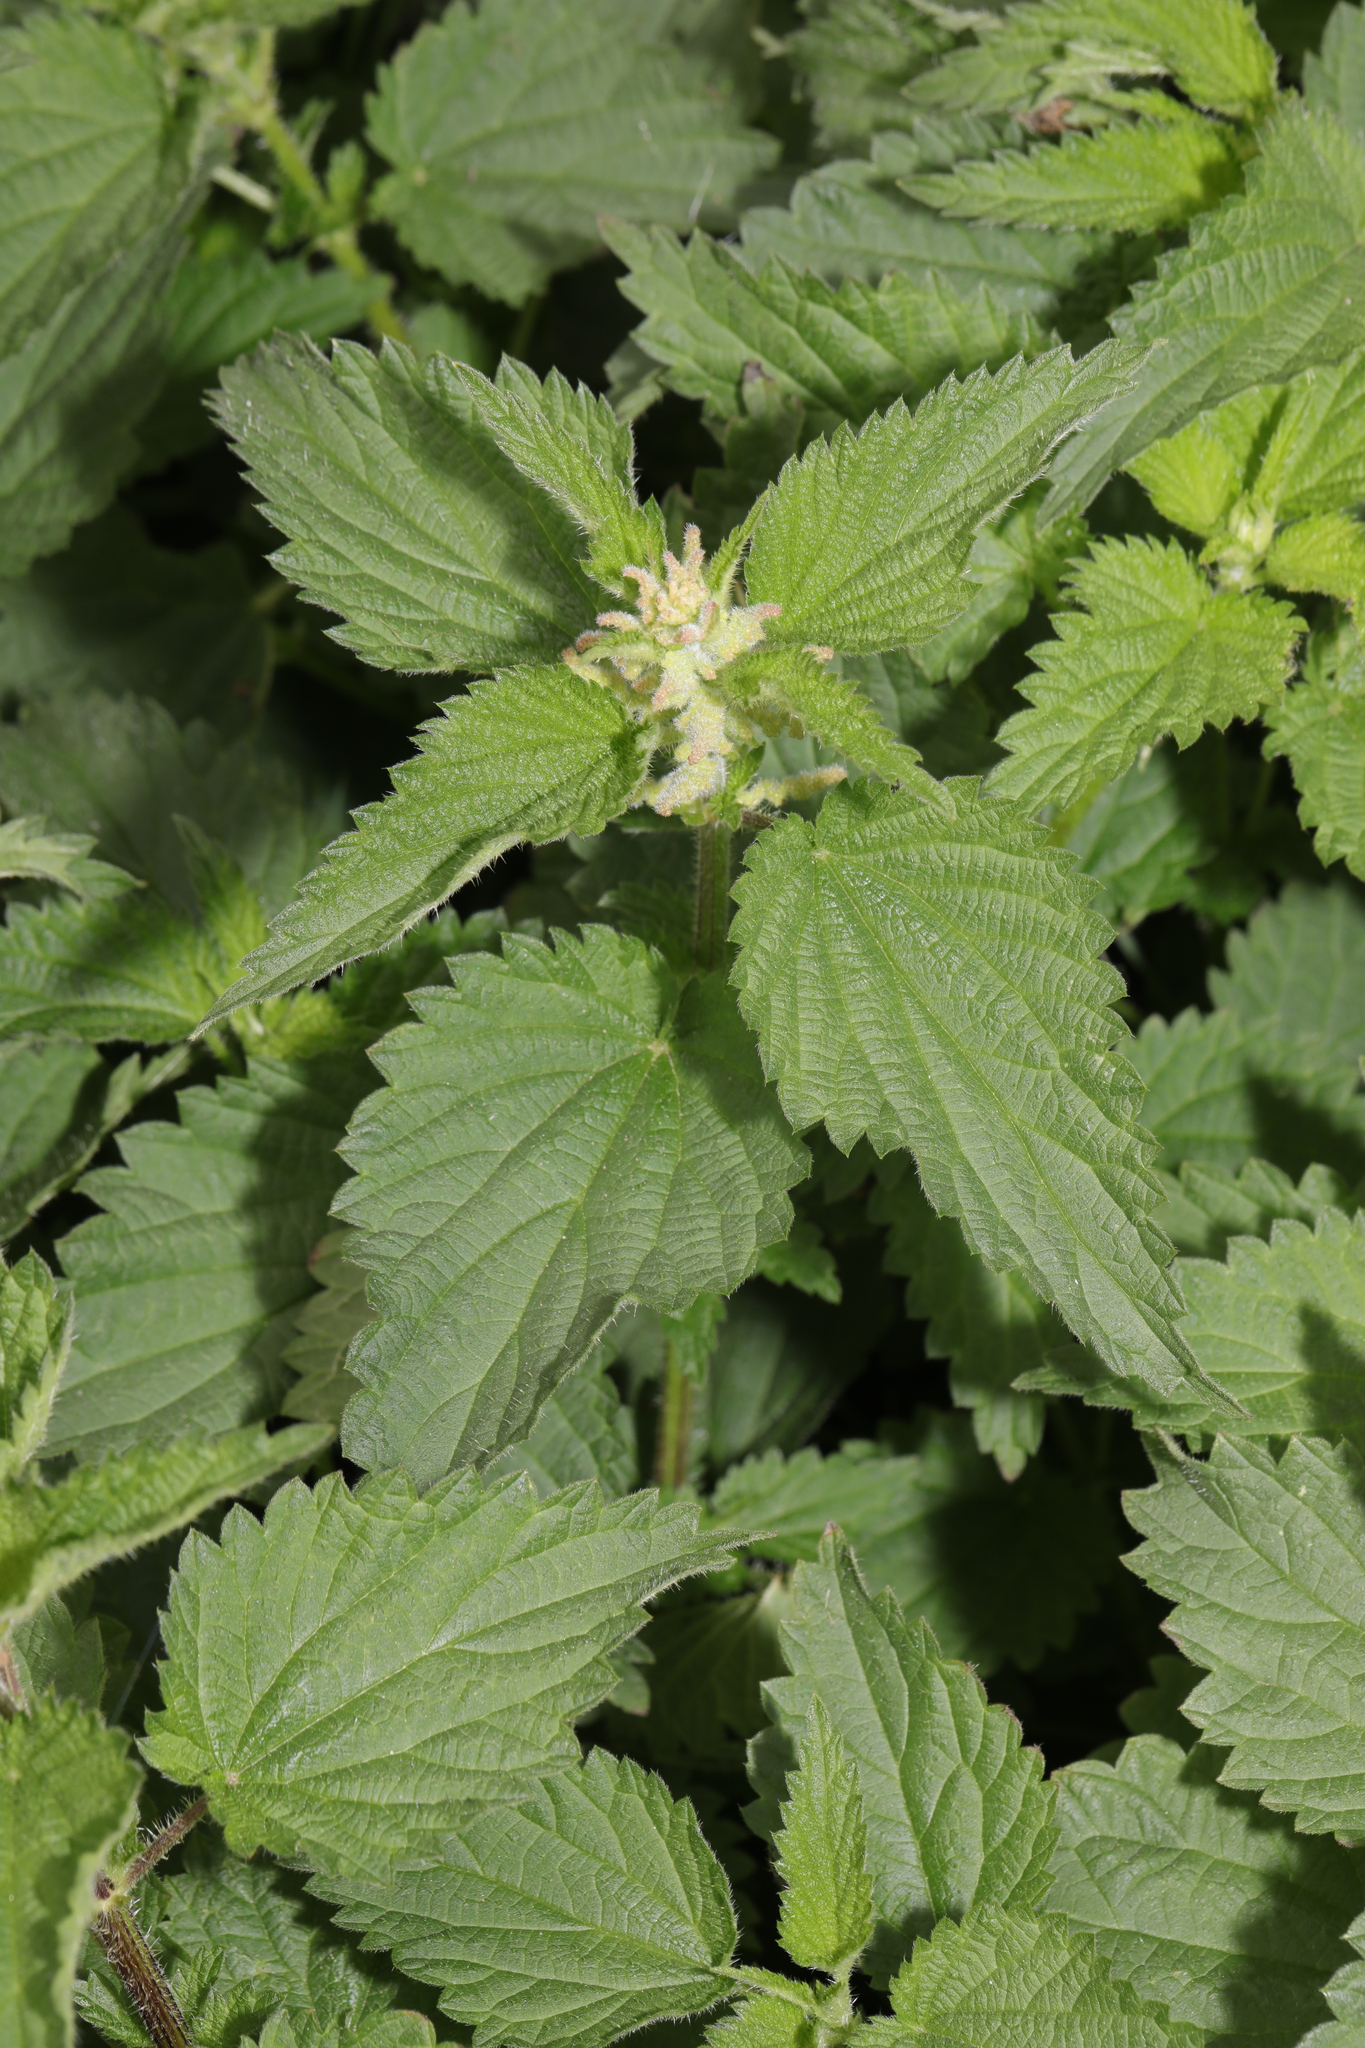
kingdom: Plantae
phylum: Tracheophyta
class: Magnoliopsida
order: Rosales
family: Urticaceae
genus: Urtica
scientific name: Urtica dioica
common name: Common nettle
